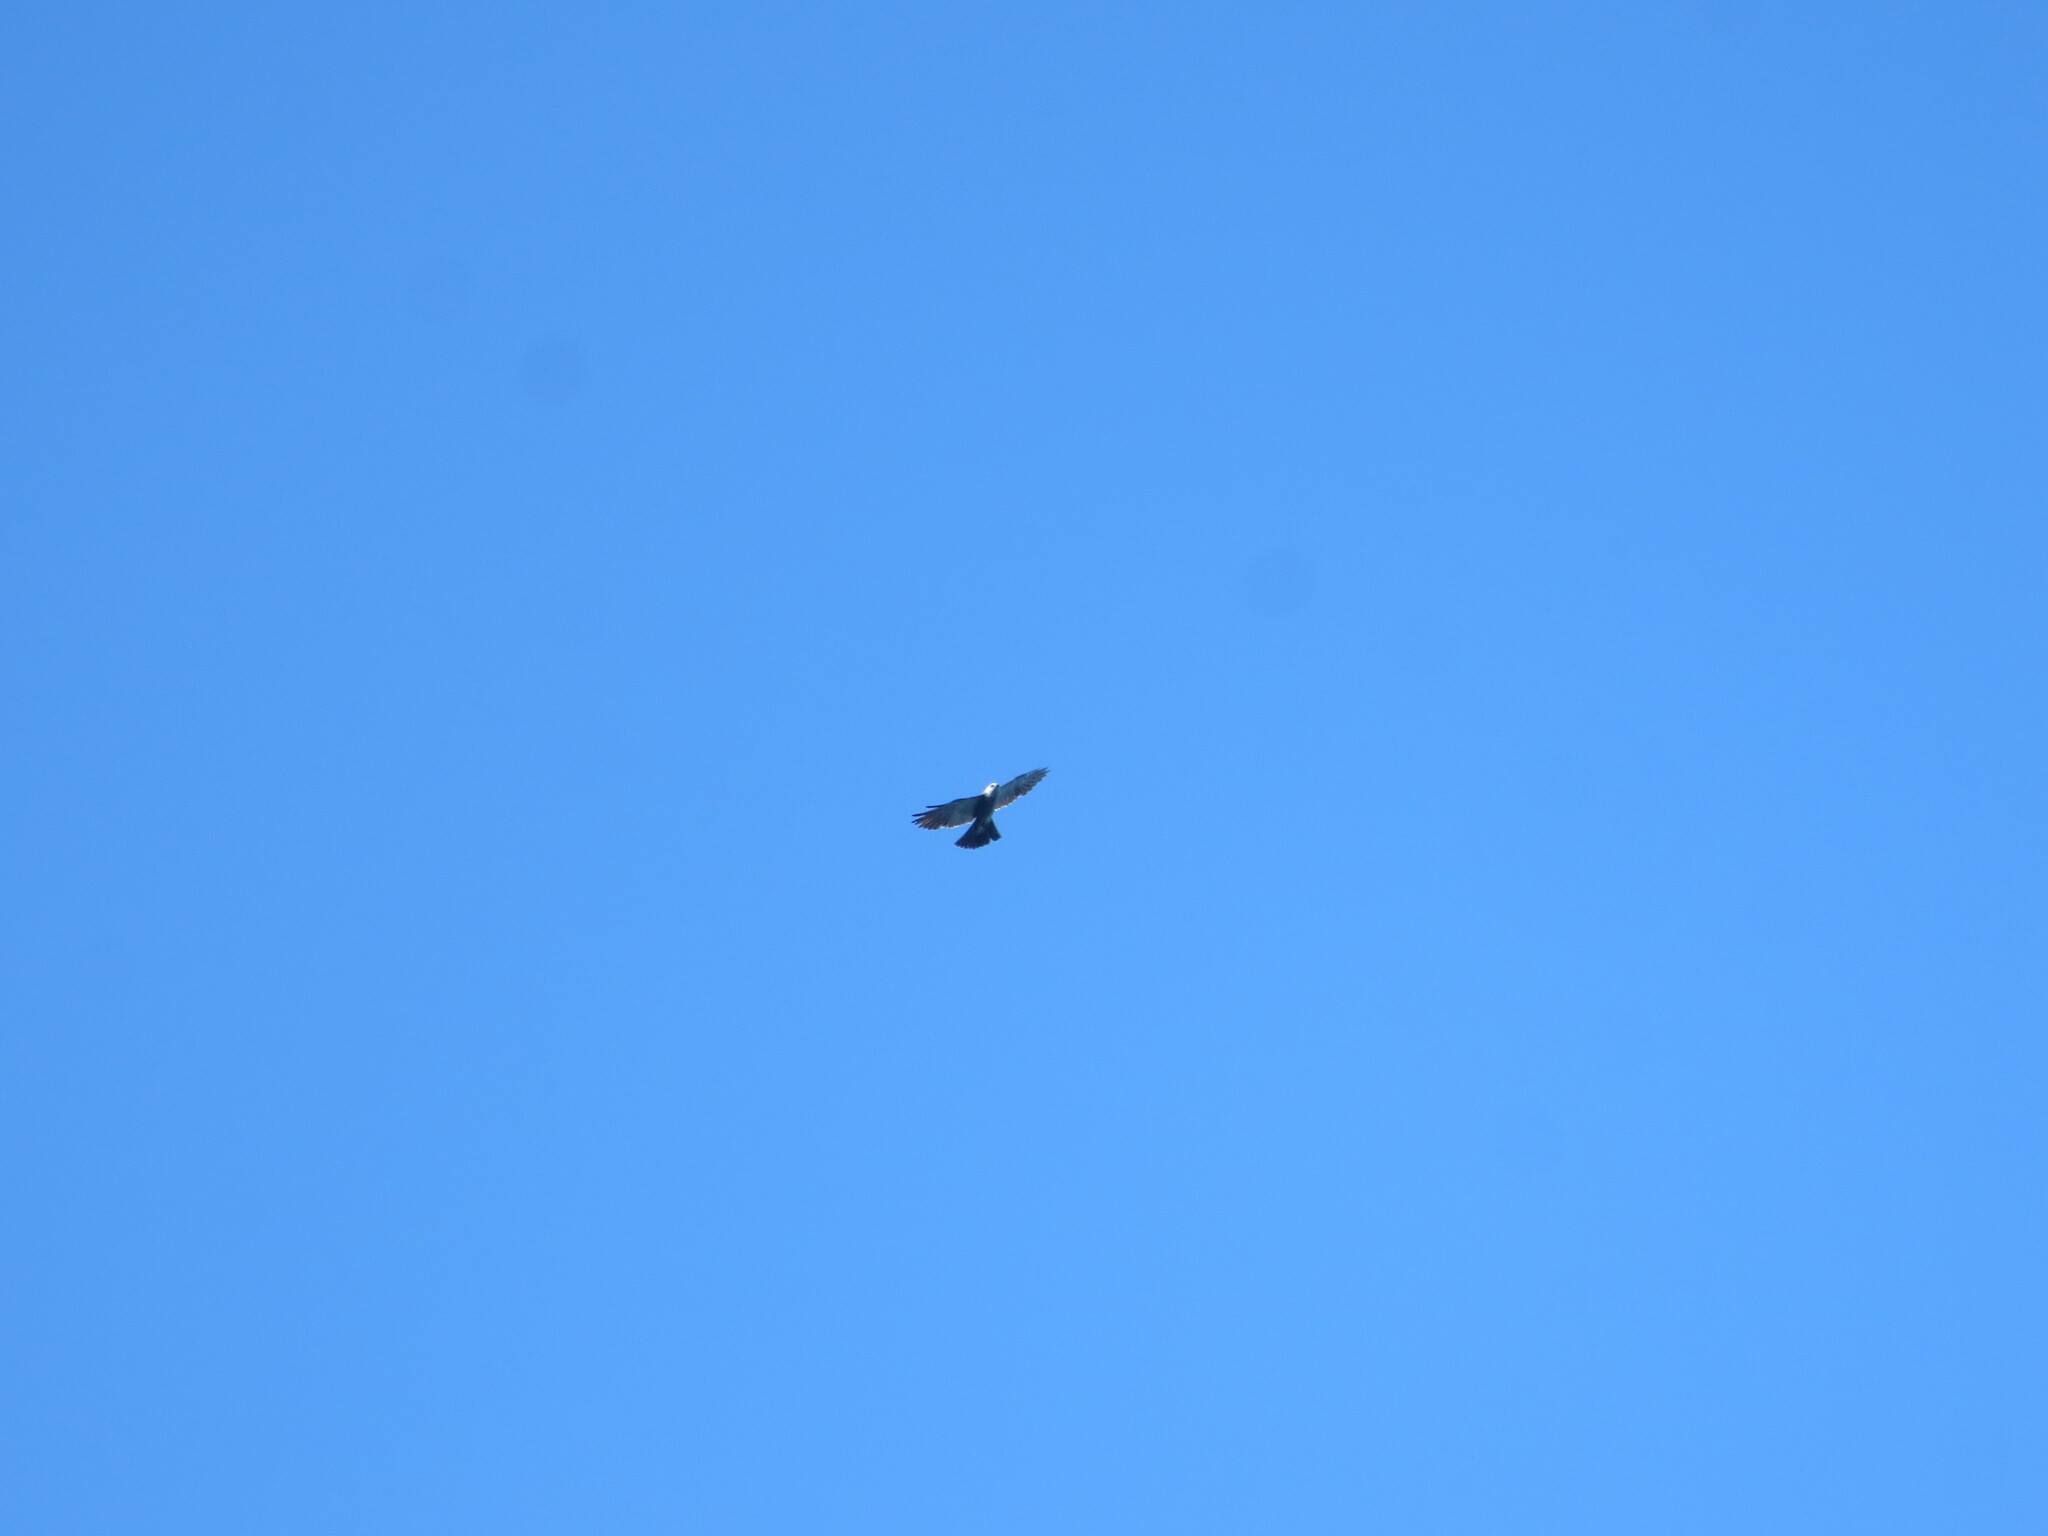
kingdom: Animalia
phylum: Chordata
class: Aves
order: Accipitriformes
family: Accipitridae
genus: Ictinia
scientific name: Ictinia mississippiensis
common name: Mississippi kite
